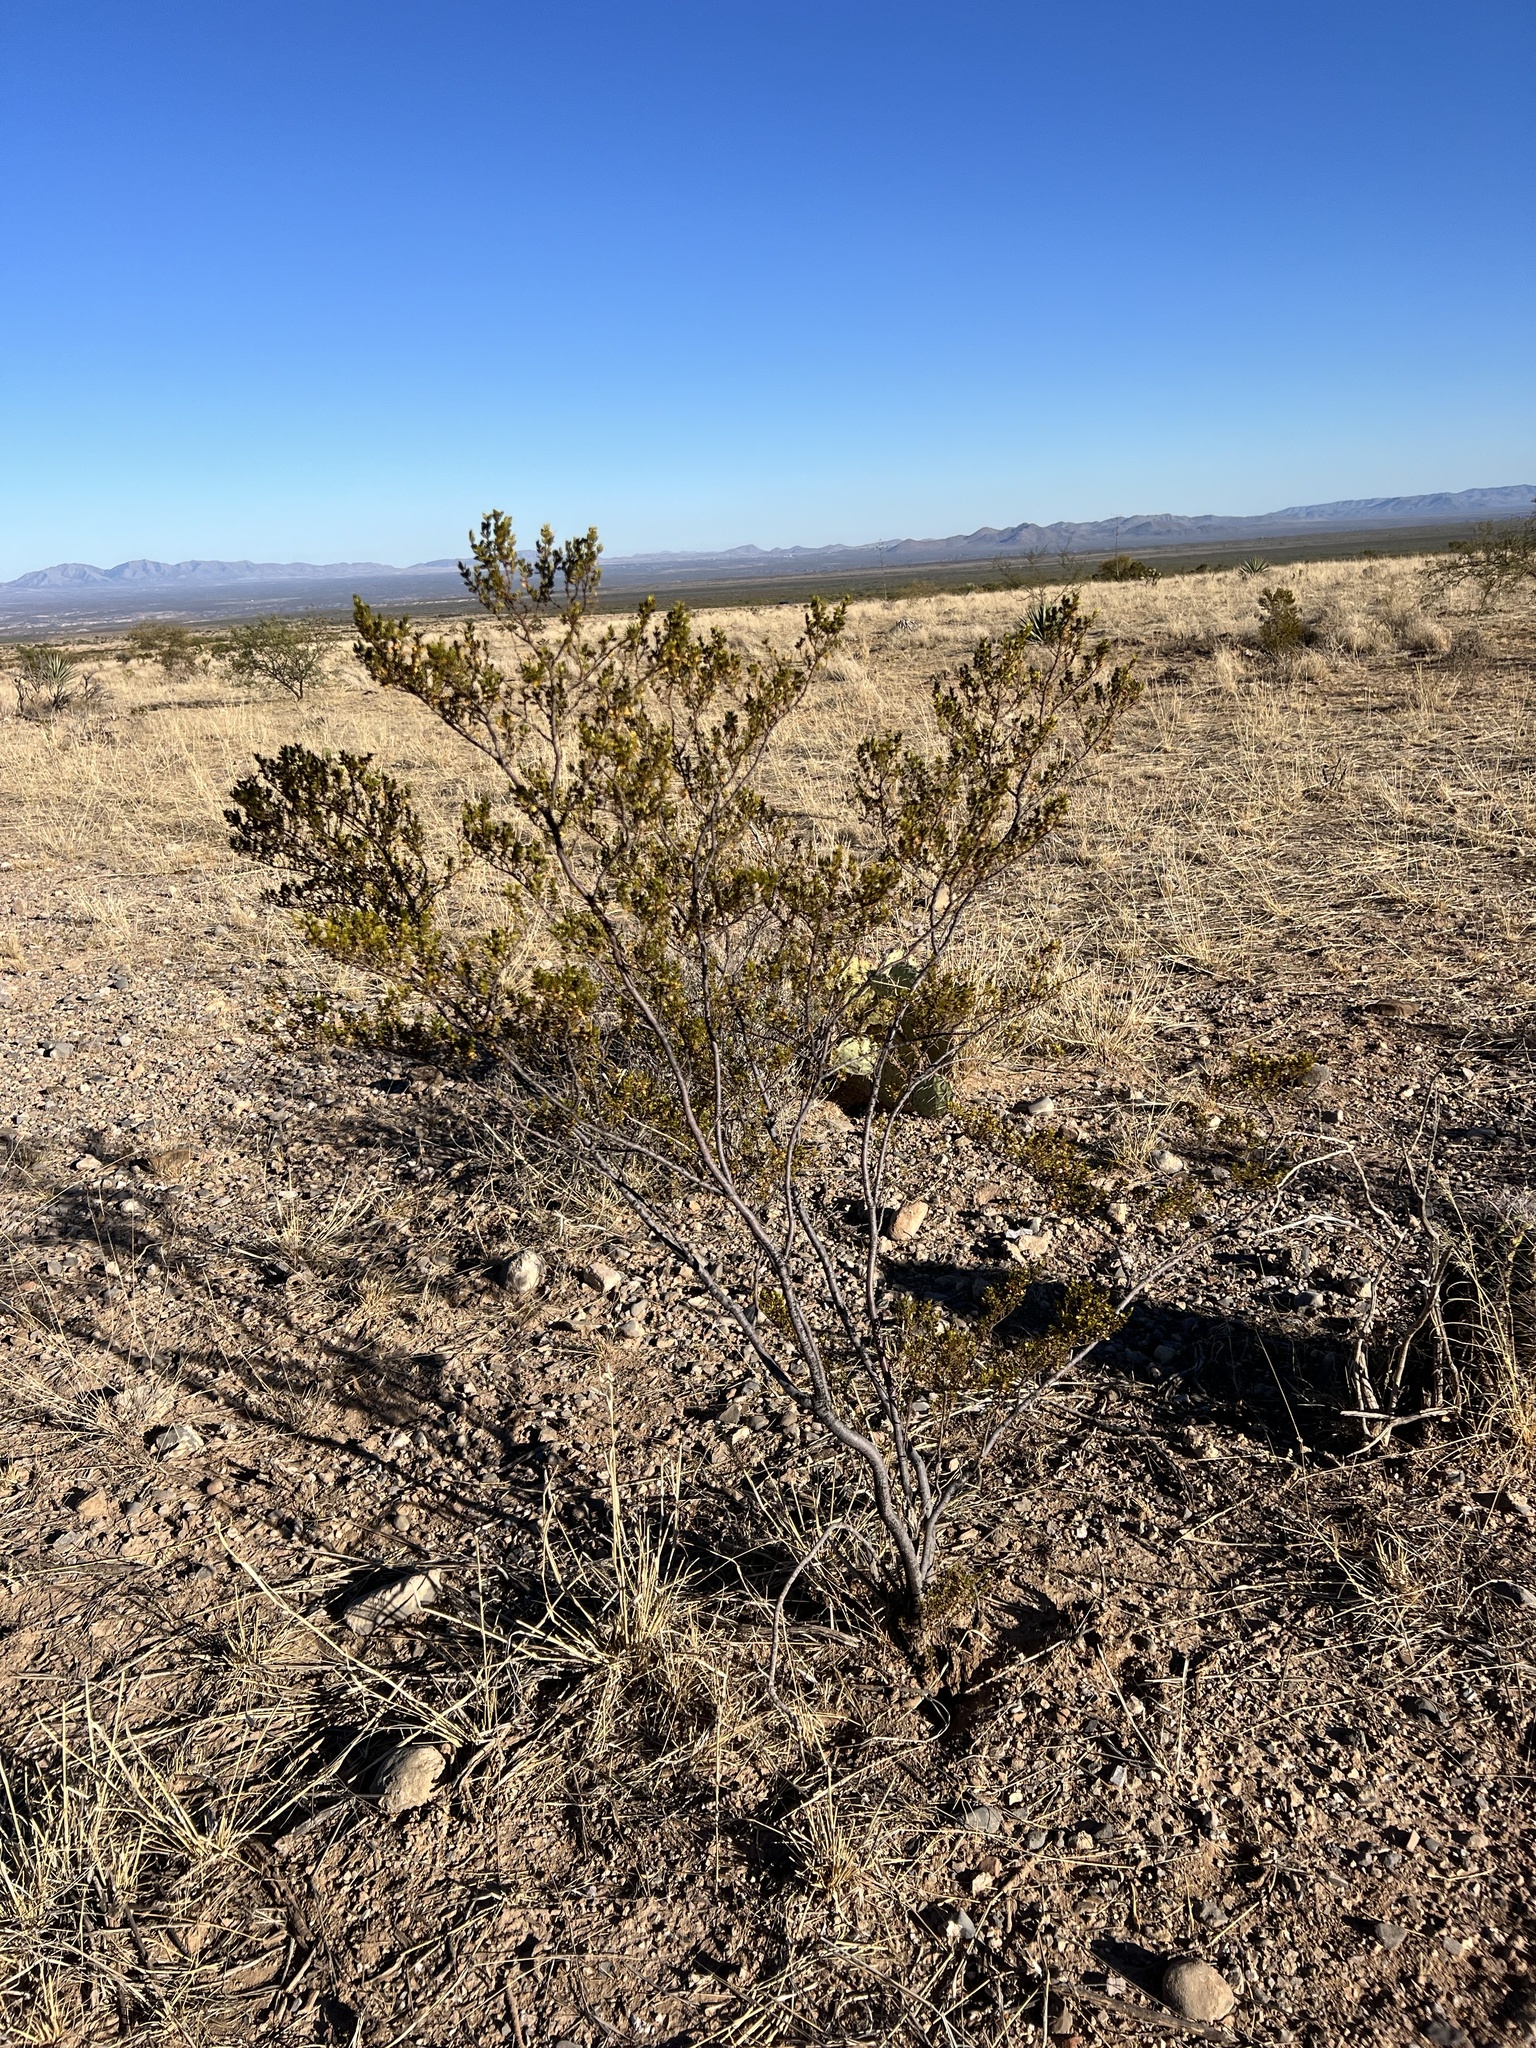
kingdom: Plantae
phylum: Tracheophyta
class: Magnoliopsida
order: Zygophyllales
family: Zygophyllaceae
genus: Larrea
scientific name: Larrea tridentata
